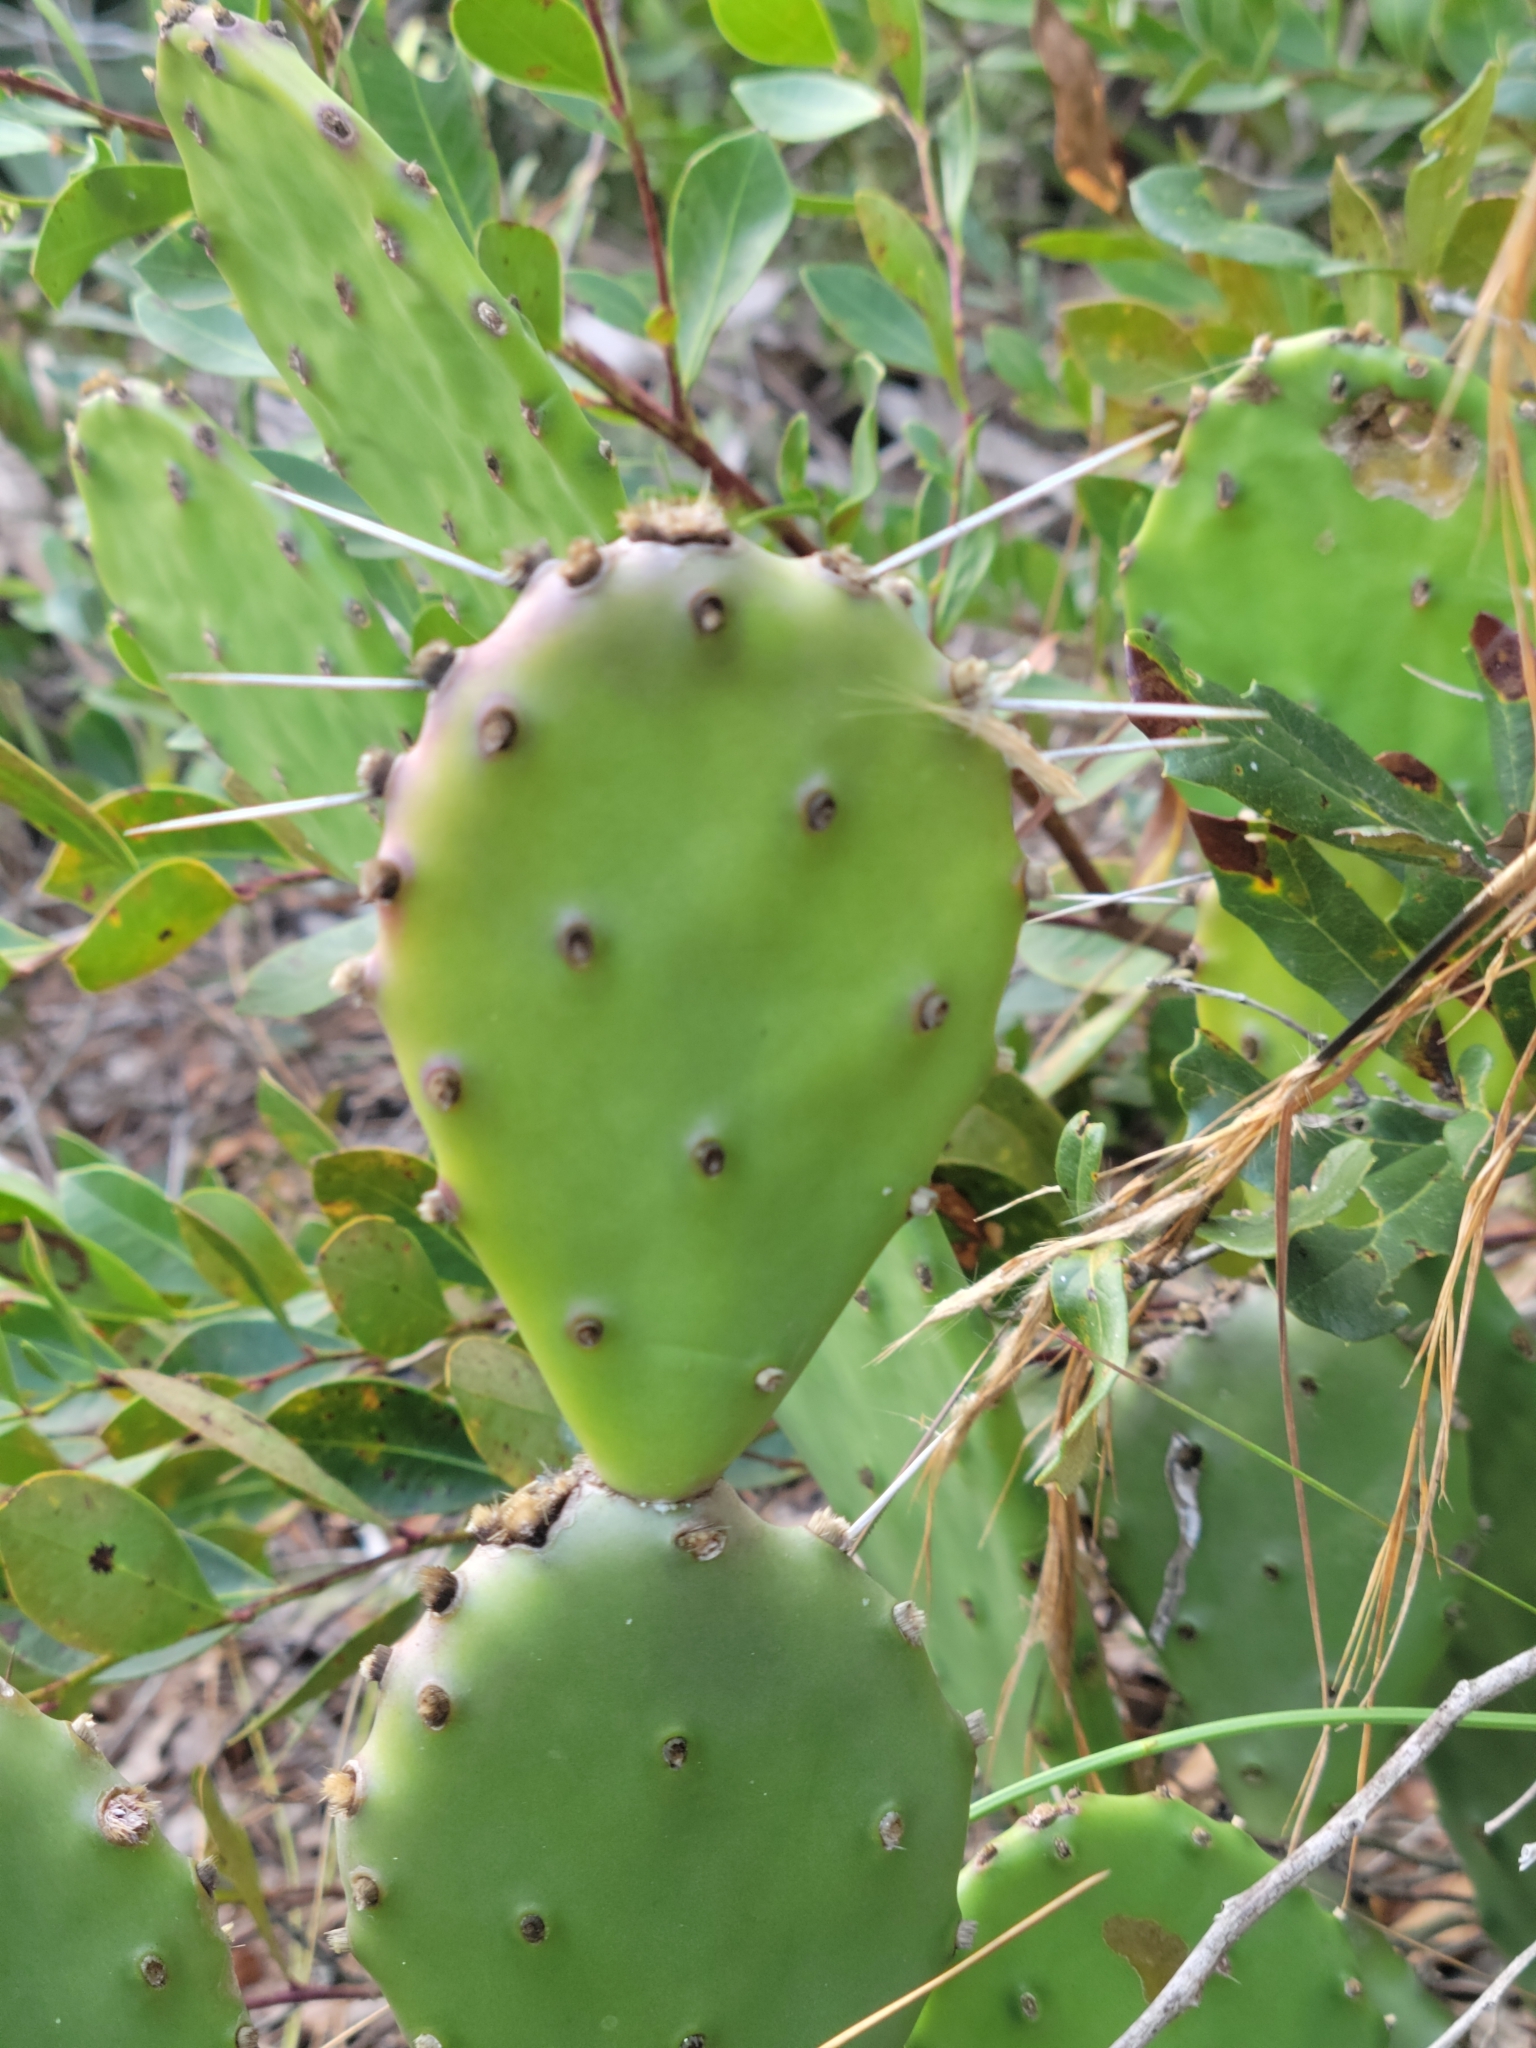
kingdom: Plantae
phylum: Tracheophyta
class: Magnoliopsida
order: Caryophyllales
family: Cactaceae
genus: Opuntia
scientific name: Opuntia austrina
